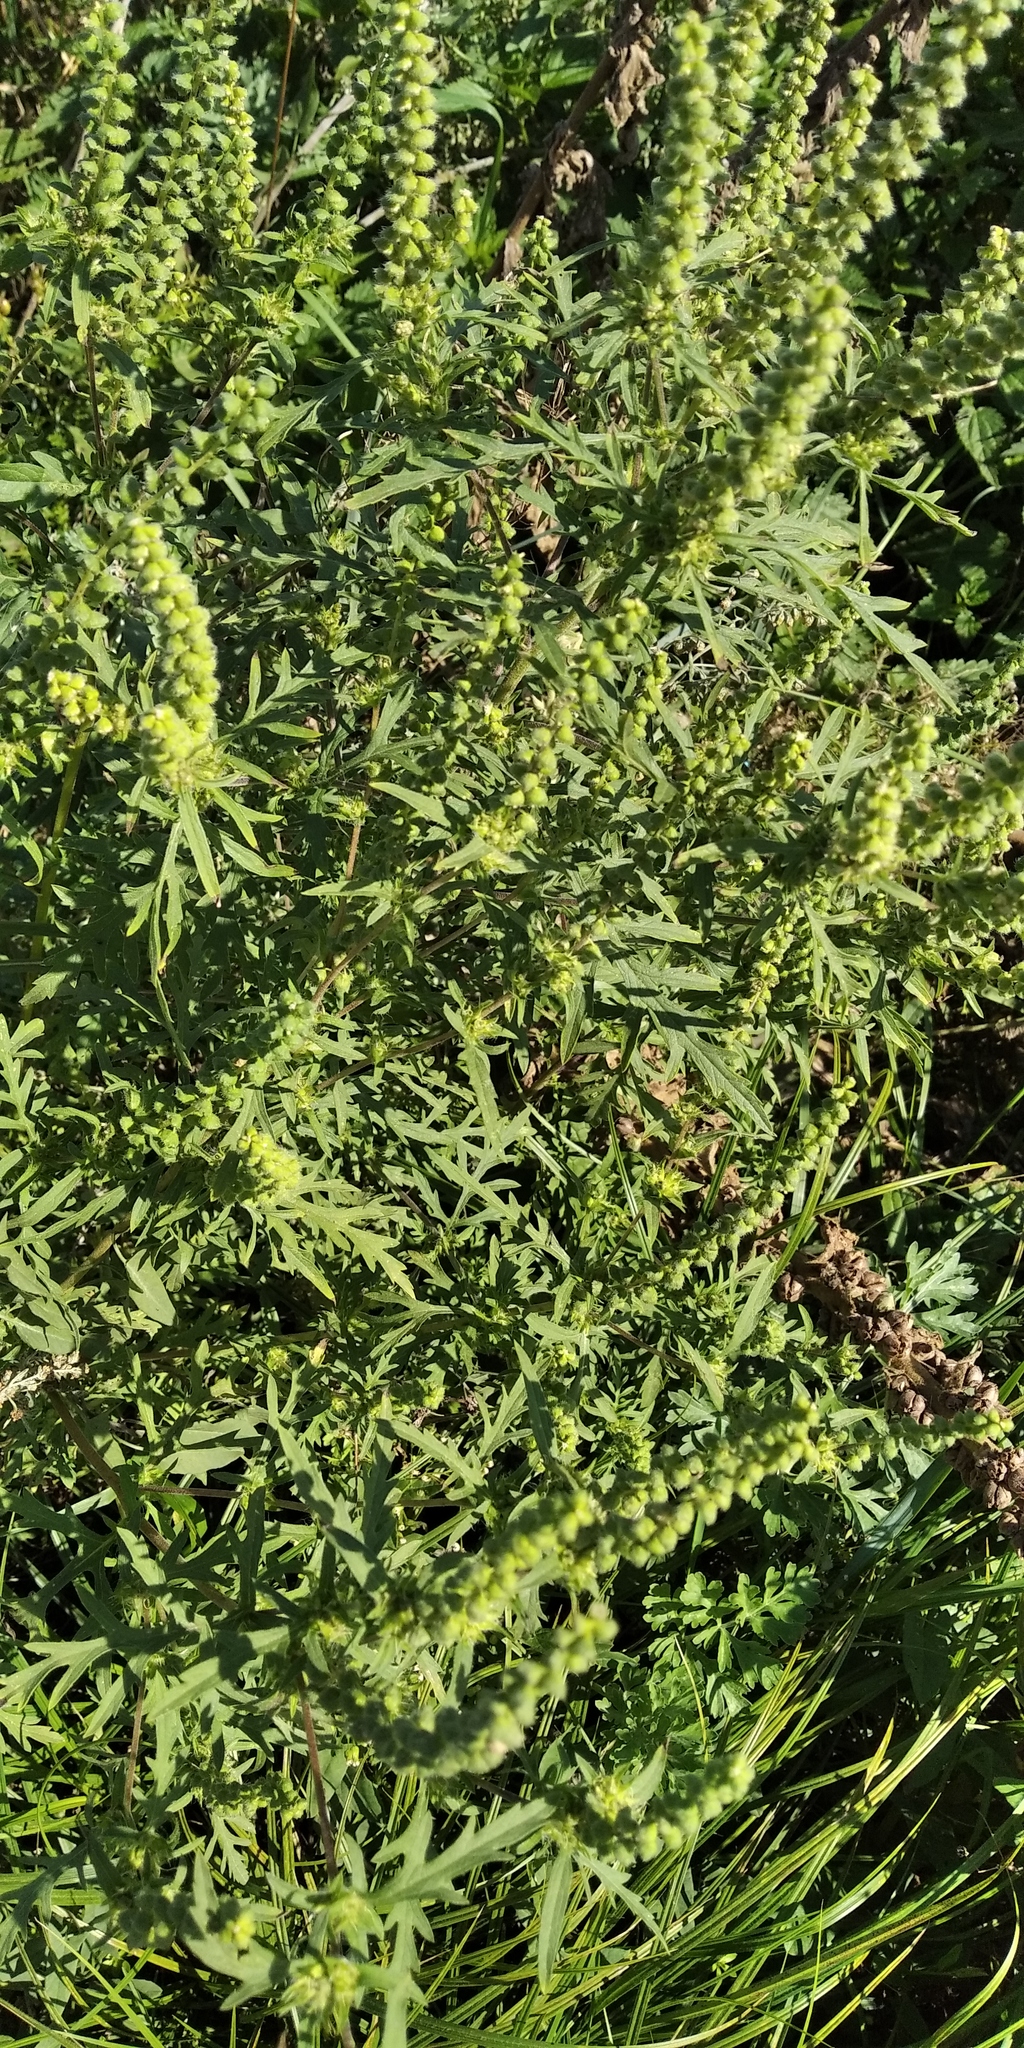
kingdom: Plantae
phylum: Tracheophyta
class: Magnoliopsida
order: Asterales
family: Asteraceae
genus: Ambrosia
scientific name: Ambrosia artemisiifolia
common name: Annual ragweed
